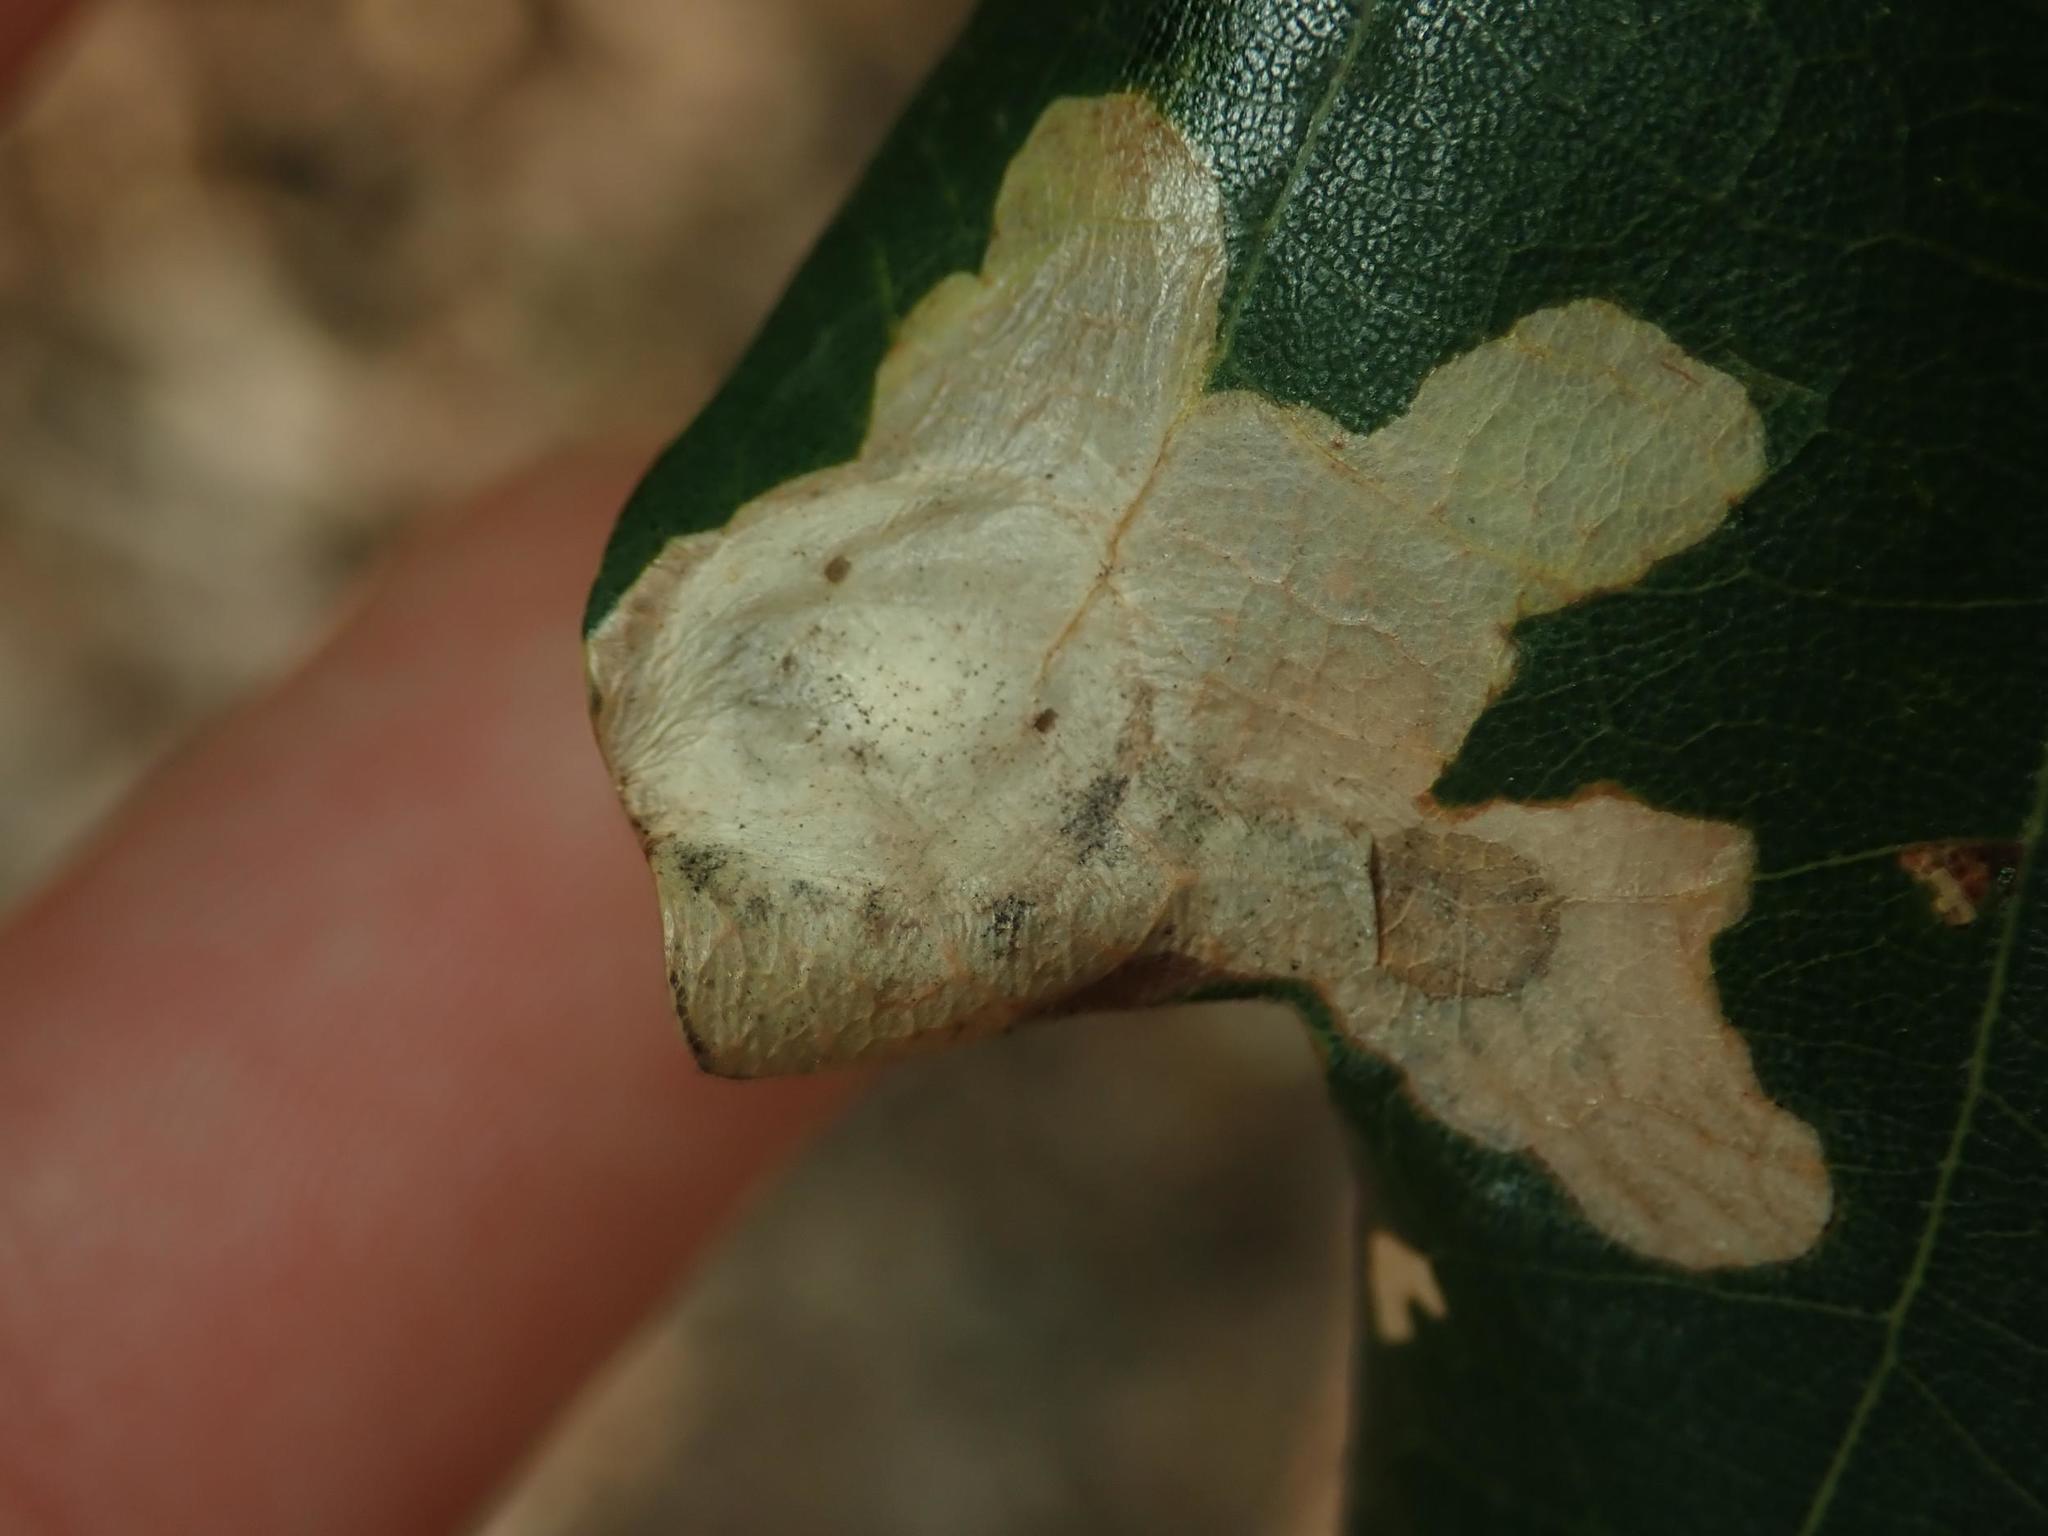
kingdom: Animalia
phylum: Arthropoda
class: Insecta
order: Lepidoptera
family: Tischeriidae
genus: Tischeria
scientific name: Tischeria ekebladella
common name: Oak carl
